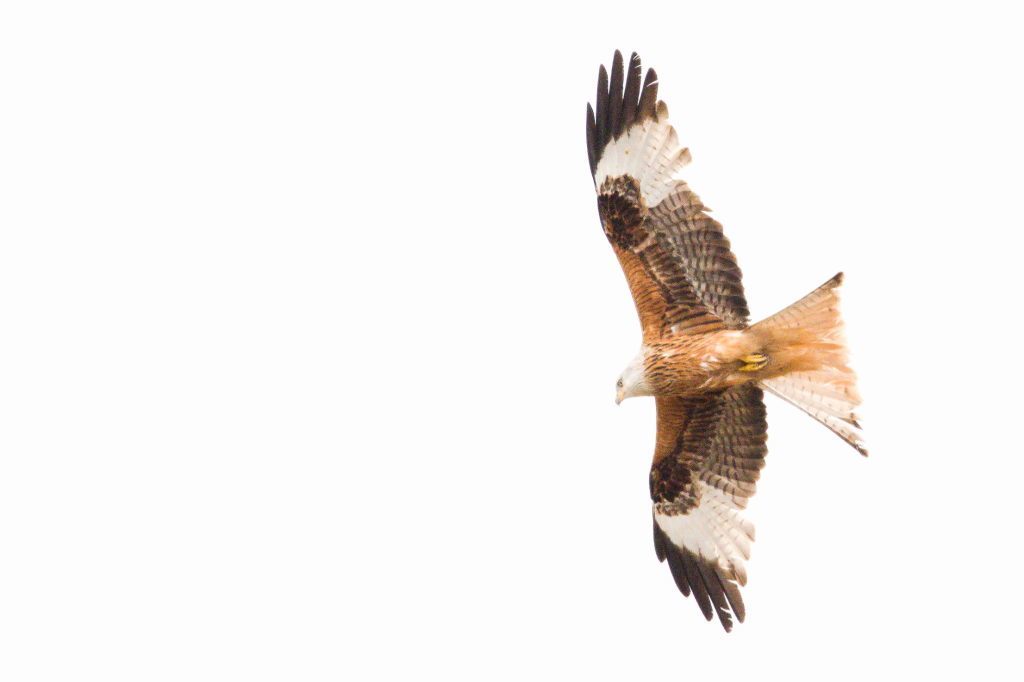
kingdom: Animalia
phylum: Chordata
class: Aves
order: Accipitriformes
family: Accipitridae
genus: Milvus
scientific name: Milvus milvus
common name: Red kite
